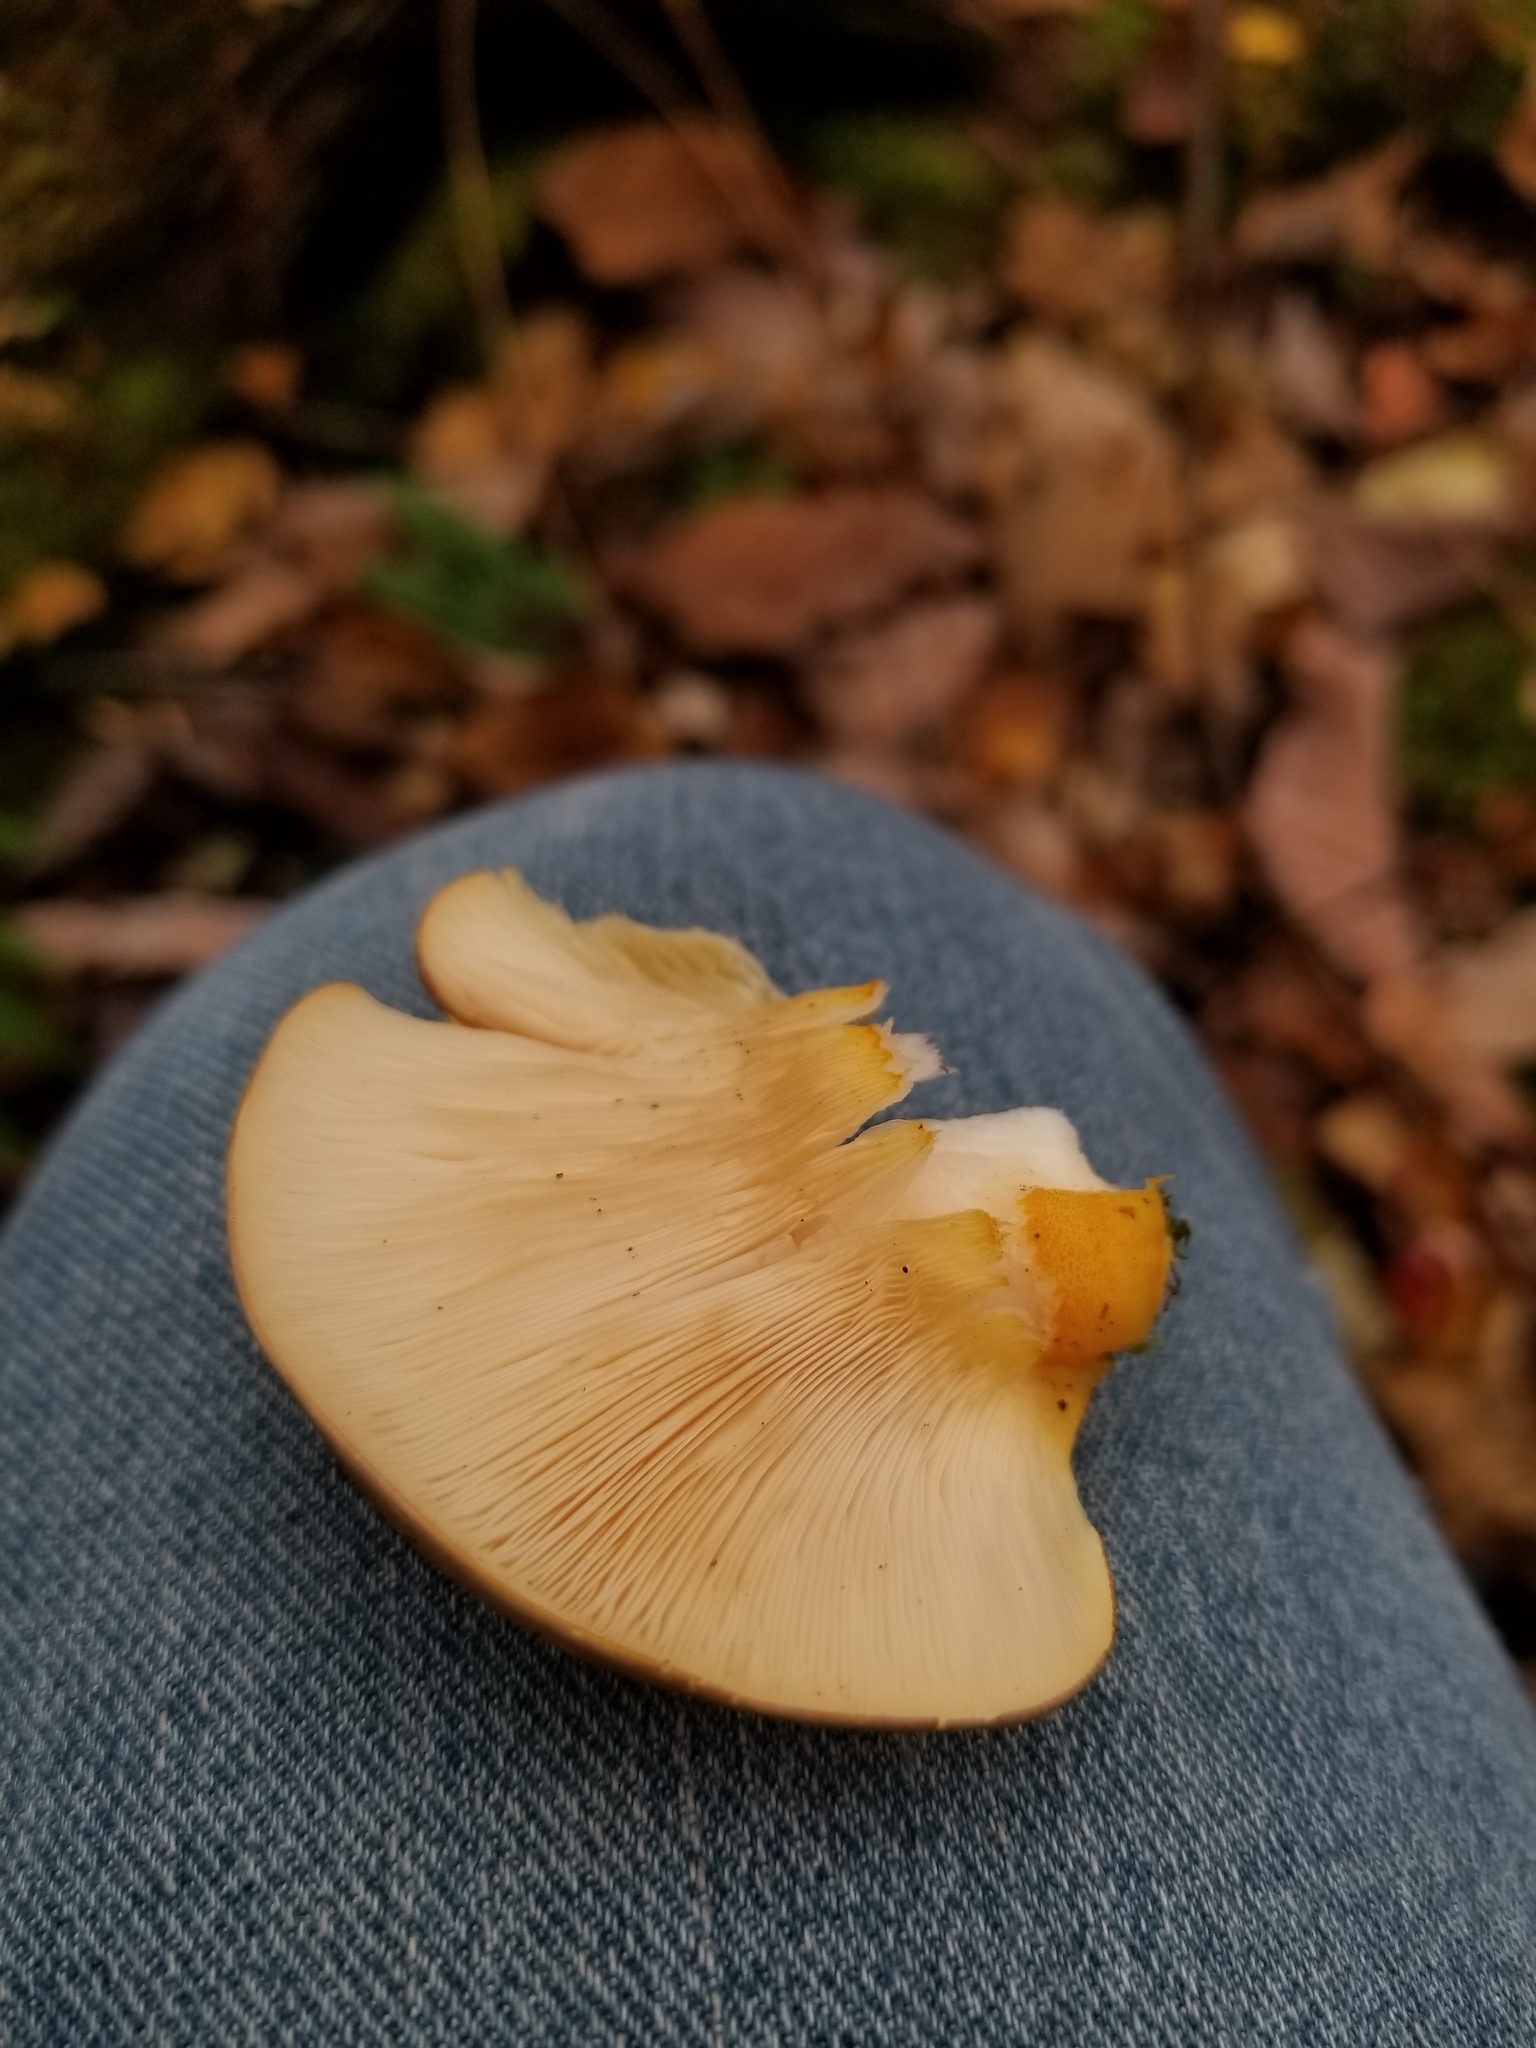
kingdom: Fungi
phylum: Basidiomycota
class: Agaricomycetes
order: Agaricales
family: Sarcomyxaceae
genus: Sarcomyxa
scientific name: Sarcomyxa serotina
